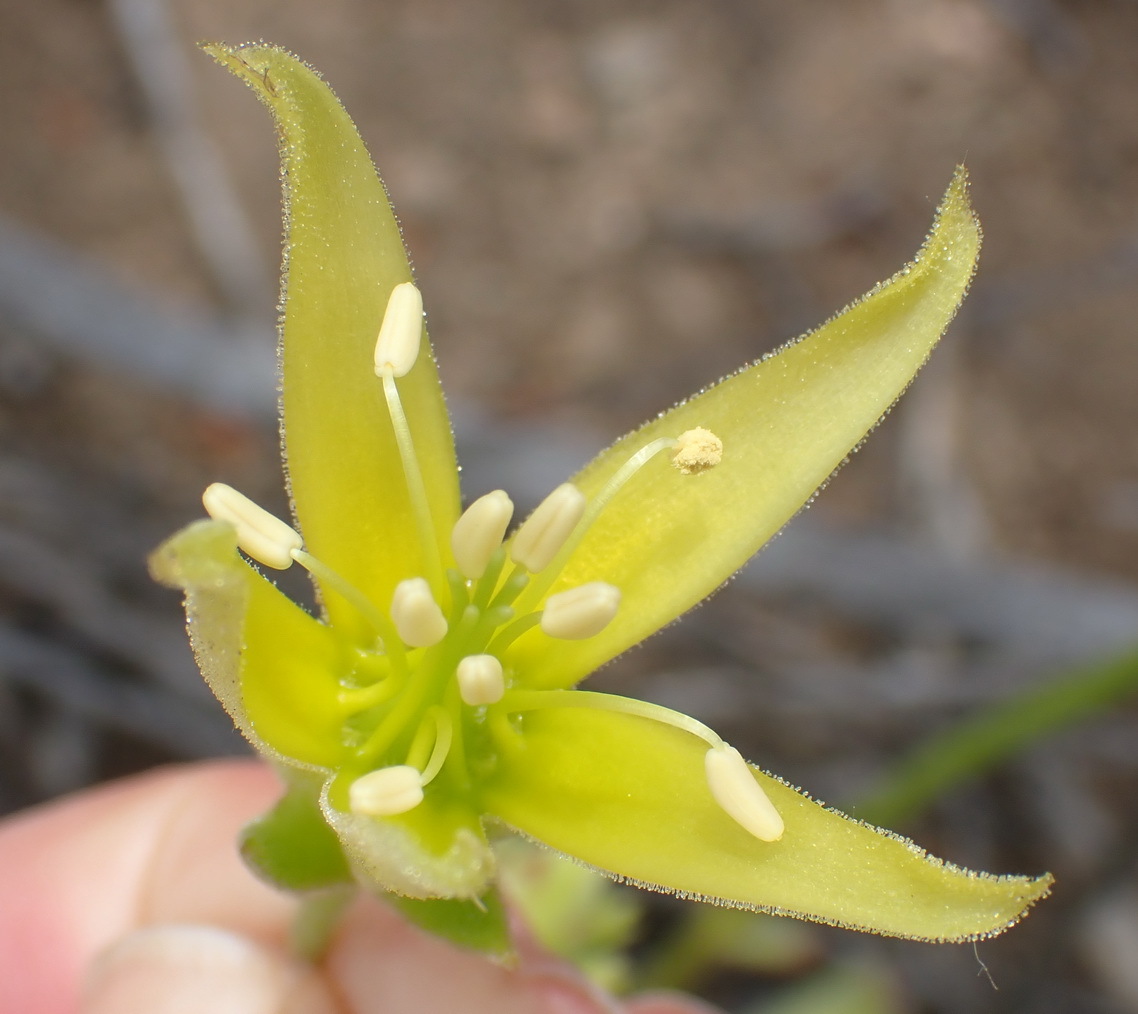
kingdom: Plantae
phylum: Tracheophyta
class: Magnoliopsida
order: Saxifragales
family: Crassulaceae
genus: Cotyledon
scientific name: Cotyledon cuneata
